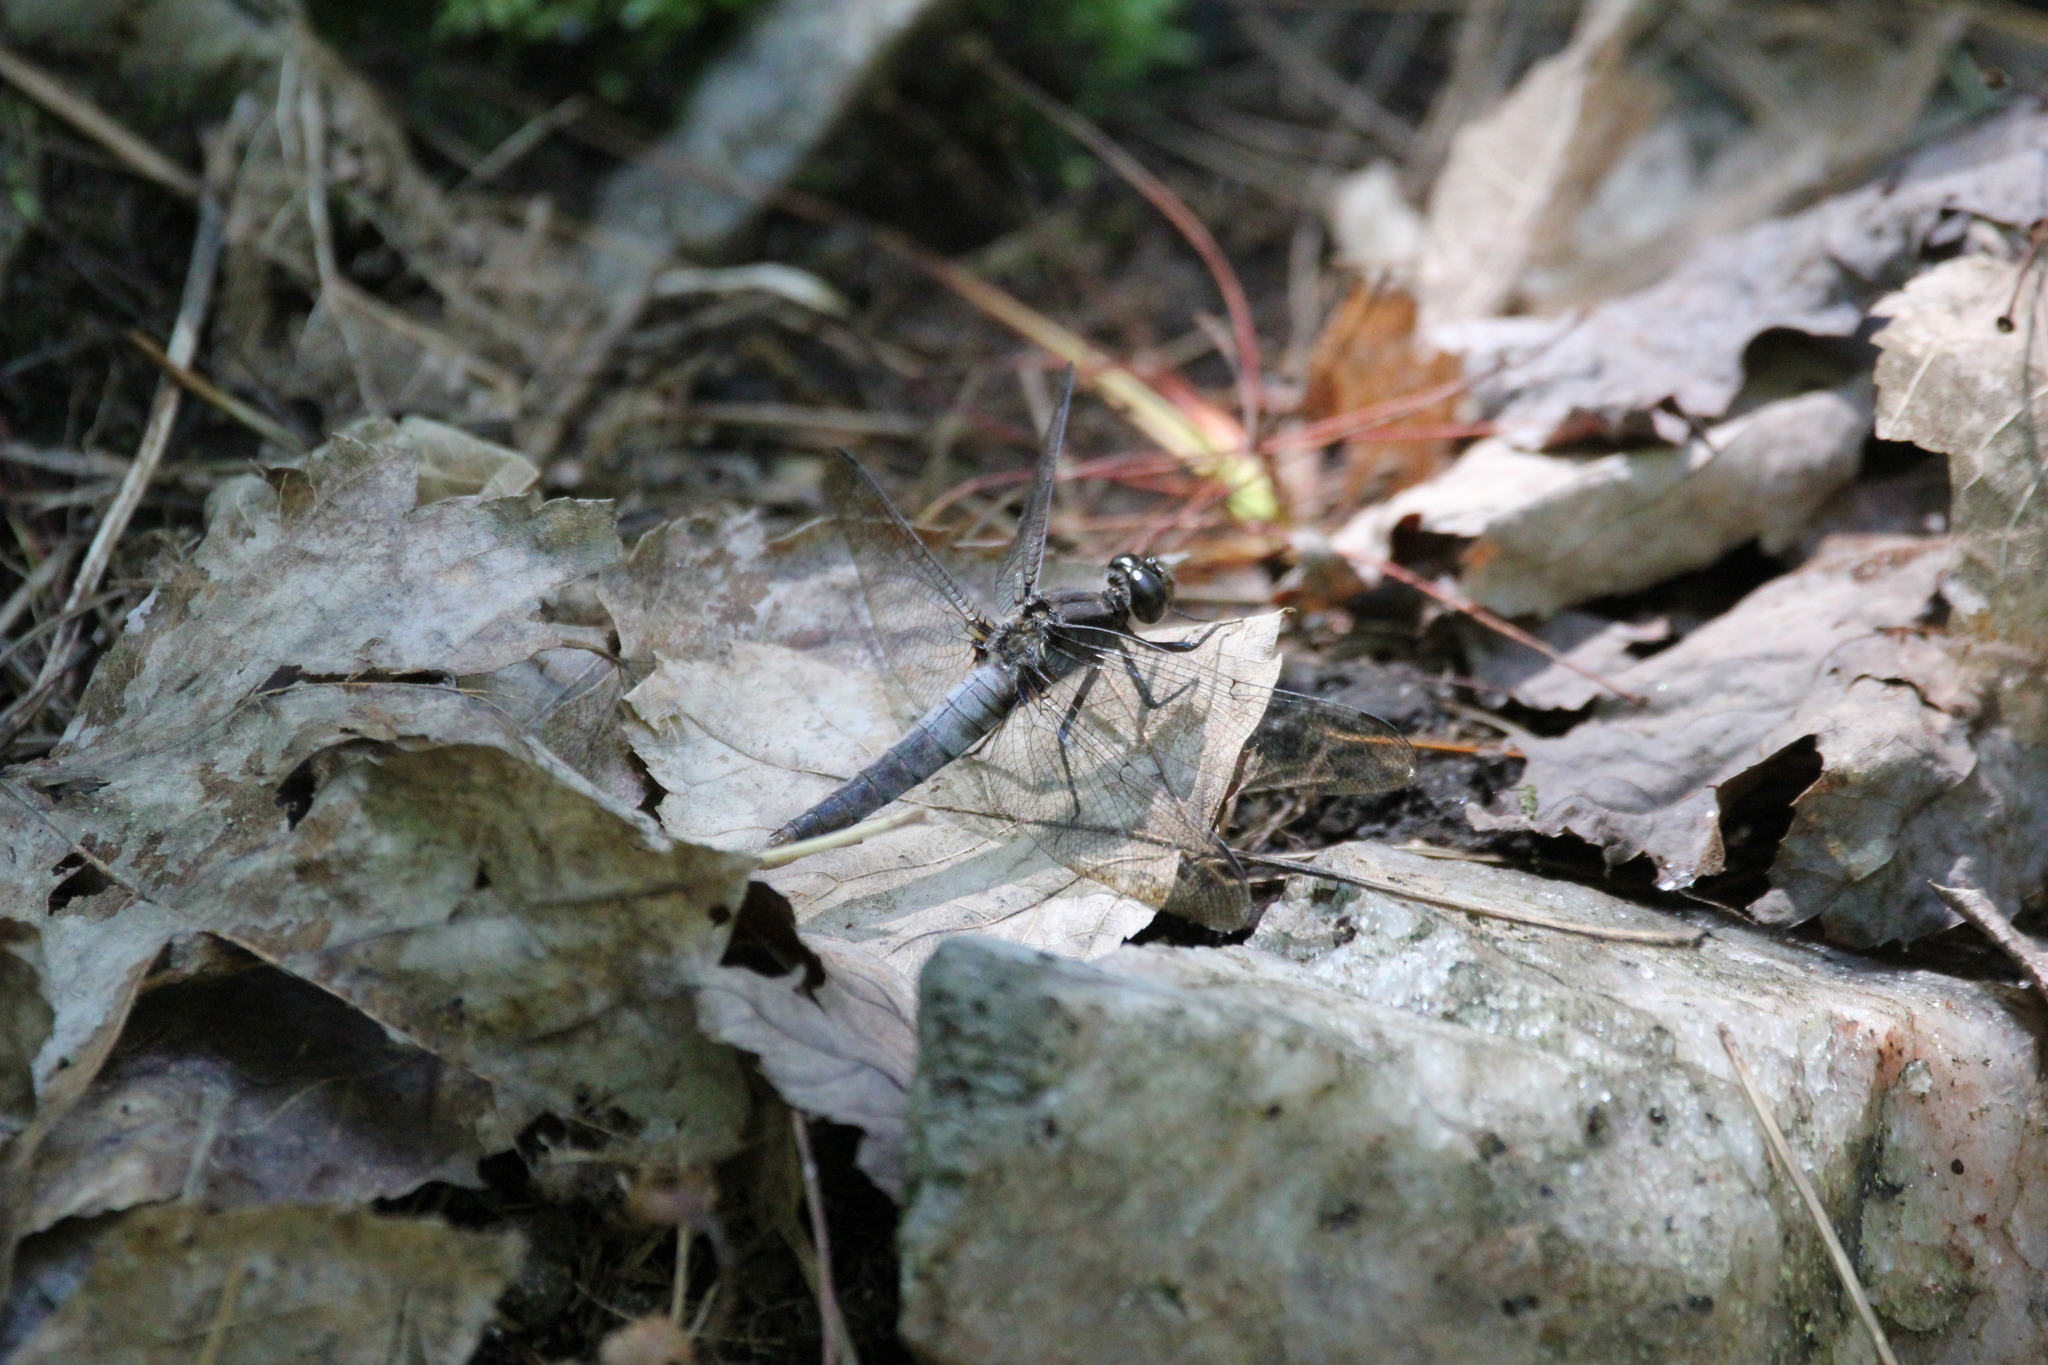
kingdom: Animalia
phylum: Arthropoda
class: Insecta
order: Odonata
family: Libellulidae
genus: Ladona
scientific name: Ladona julia
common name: Chalk-fronted corporal
